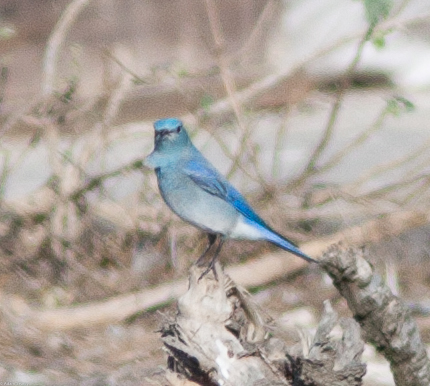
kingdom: Animalia
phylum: Chordata
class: Aves
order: Passeriformes
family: Turdidae
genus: Sialia
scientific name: Sialia currucoides
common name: Mountain bluebird
